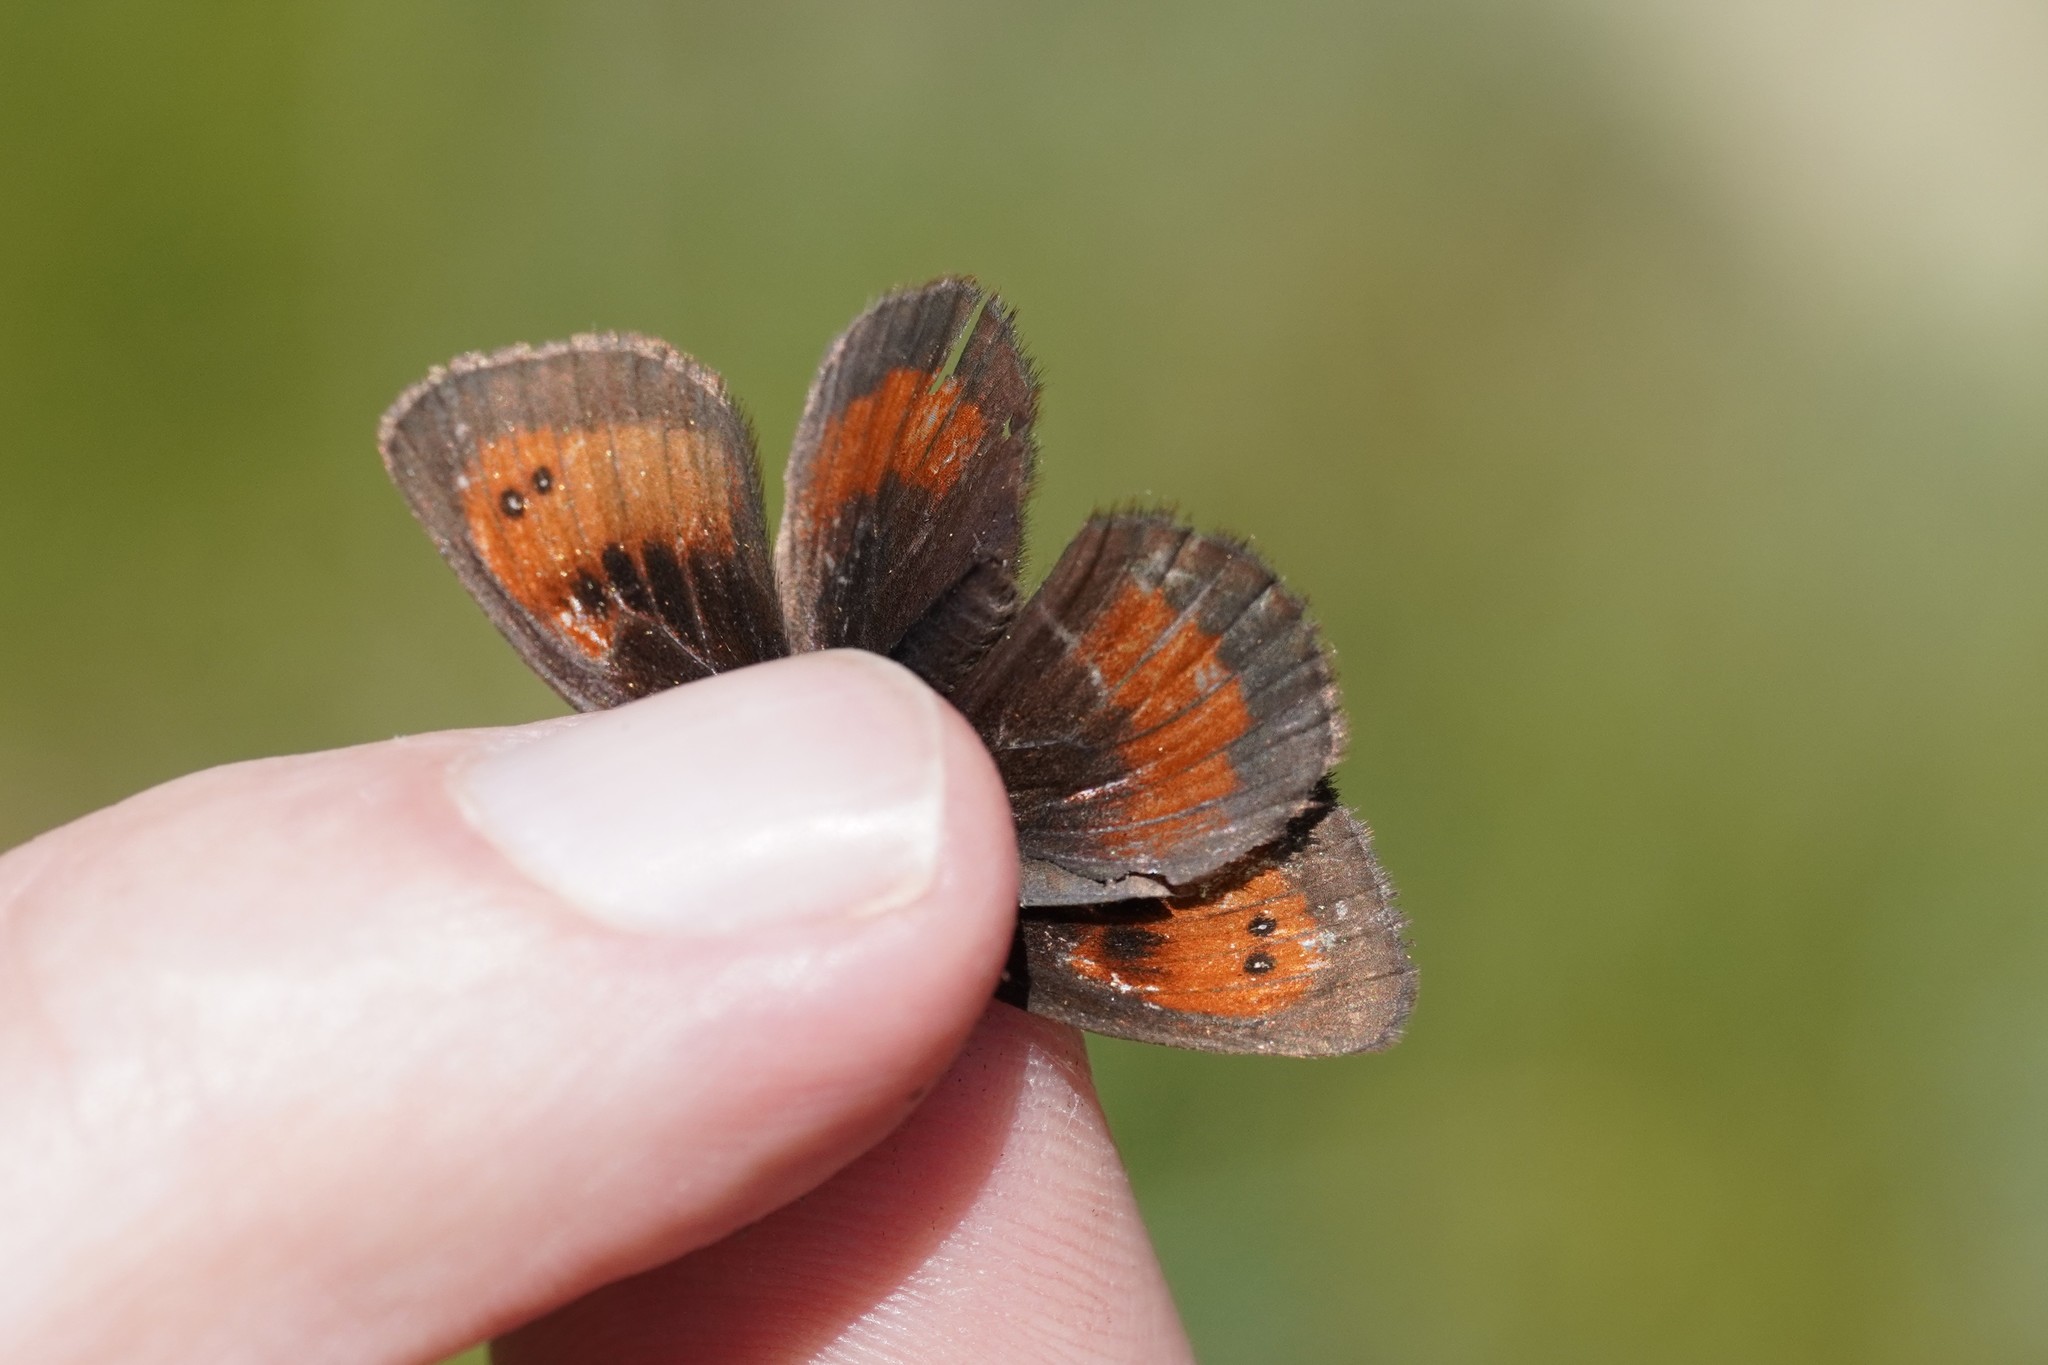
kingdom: Animalia
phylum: Arthropoda
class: Insecta
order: Lepidoptera
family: Nymphalidae
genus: Erebia
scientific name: Erebia mnestra
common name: Mnestra’s ringlet
